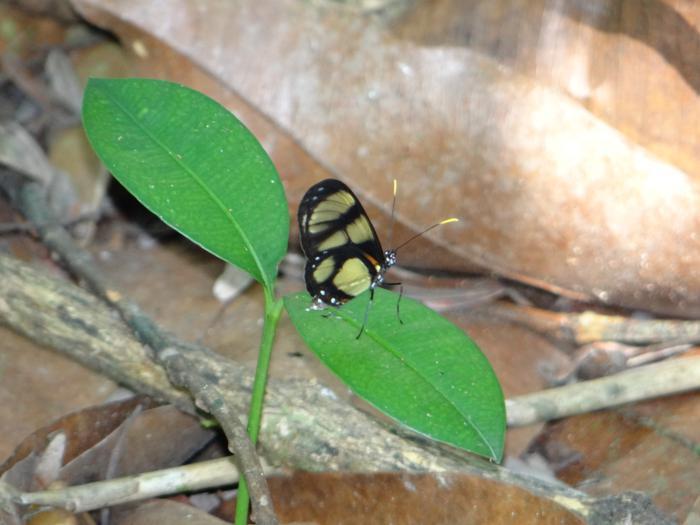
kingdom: Animalia
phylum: Arthropoda
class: Insecta
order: Lepidoptera
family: Nymphalidae
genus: Callithomia
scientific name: Callithomia lenea
